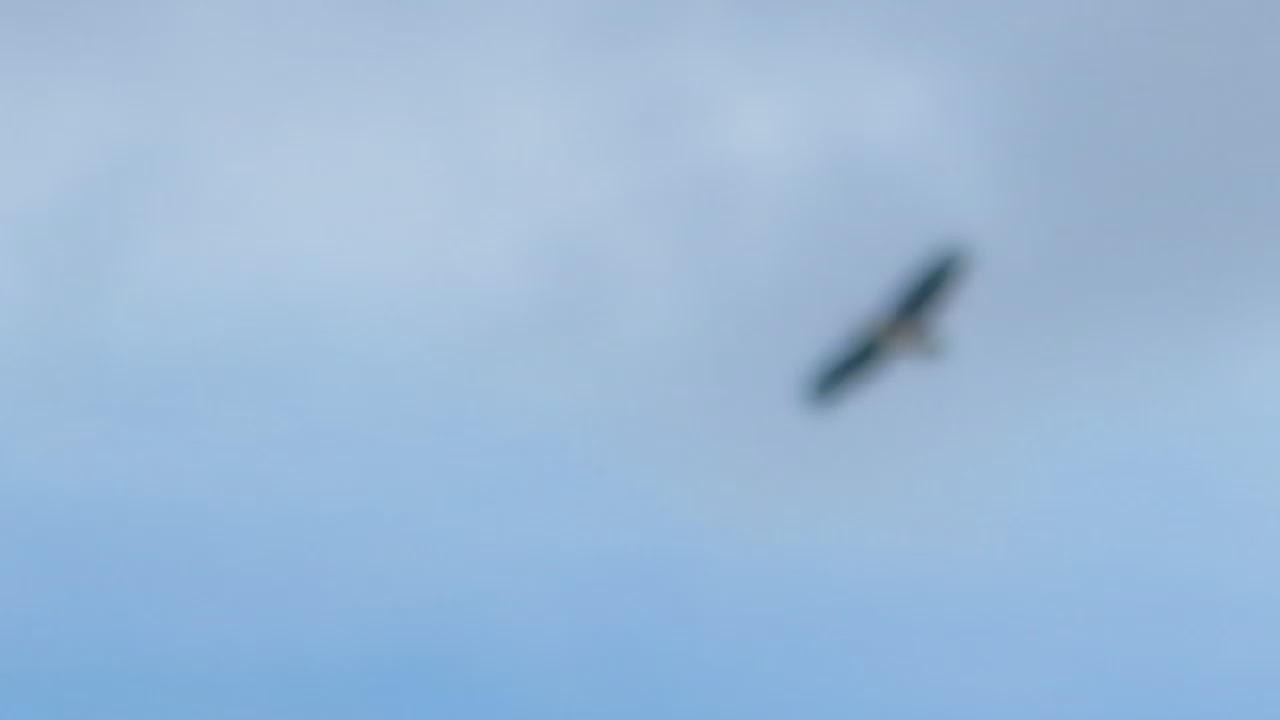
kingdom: Animalia
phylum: Chordata
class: Aves
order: Accipitriformes
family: Accipitridae
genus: Haliaeetus
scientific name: Haliaeetus leucocephalus
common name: Bald eagle
